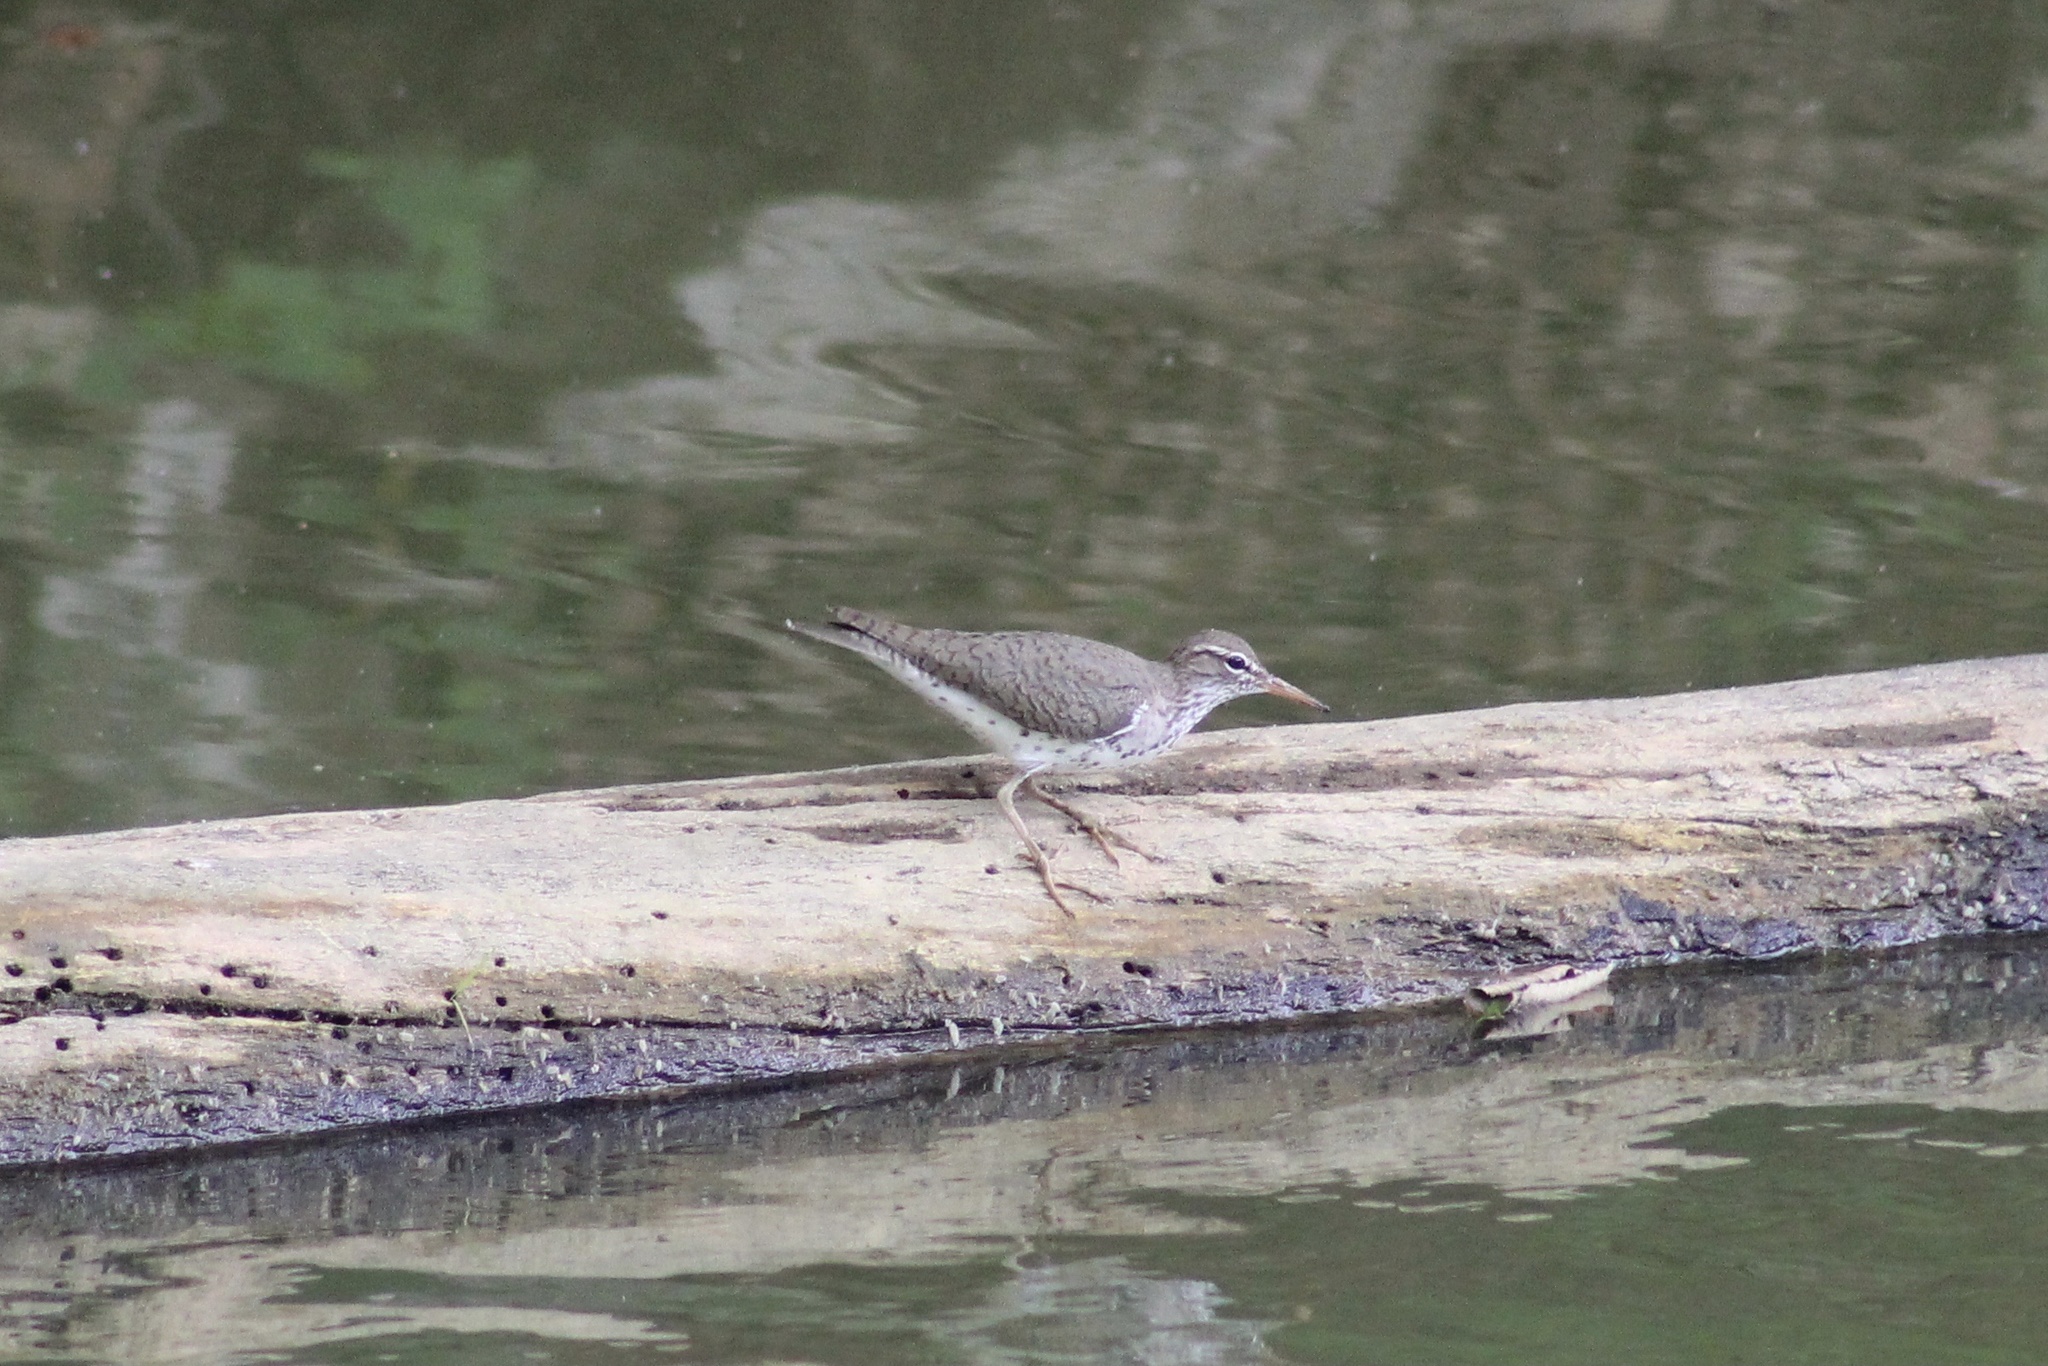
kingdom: Animalia
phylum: Chordata
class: Aves
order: Charadriiformes
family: Scolopacidae
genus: Actitis
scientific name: Actitis macularius
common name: Spotted sandpiper
